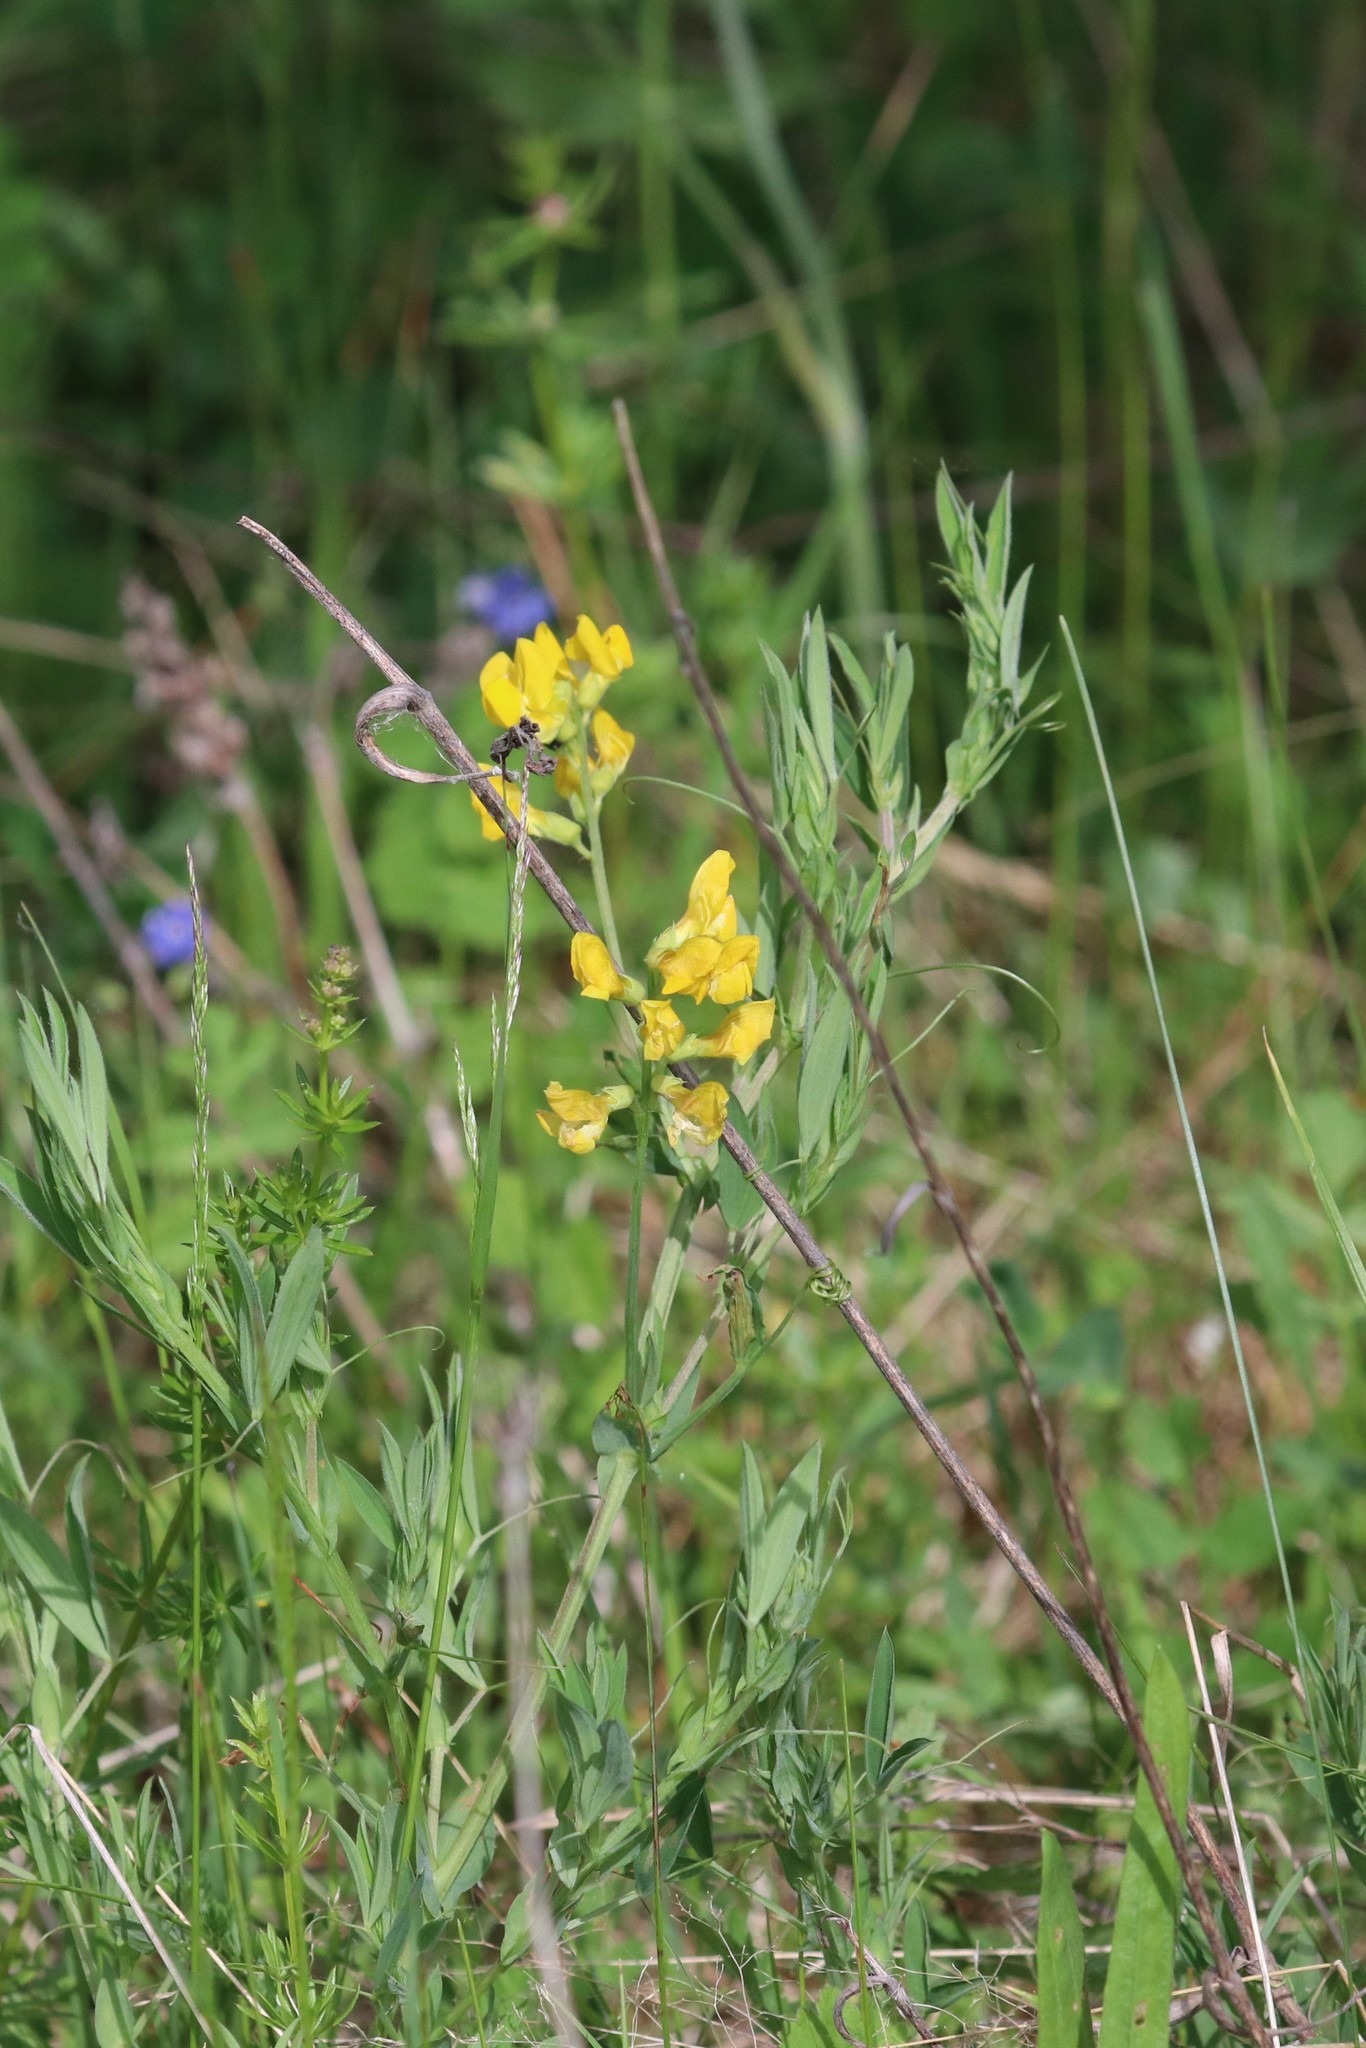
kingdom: Plantae
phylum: Tracheophyta
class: Magnoliopsida
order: Fabales
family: Fabaceae
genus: Lathyrus
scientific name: Lathyrus pratensis
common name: Meadow vetchling
